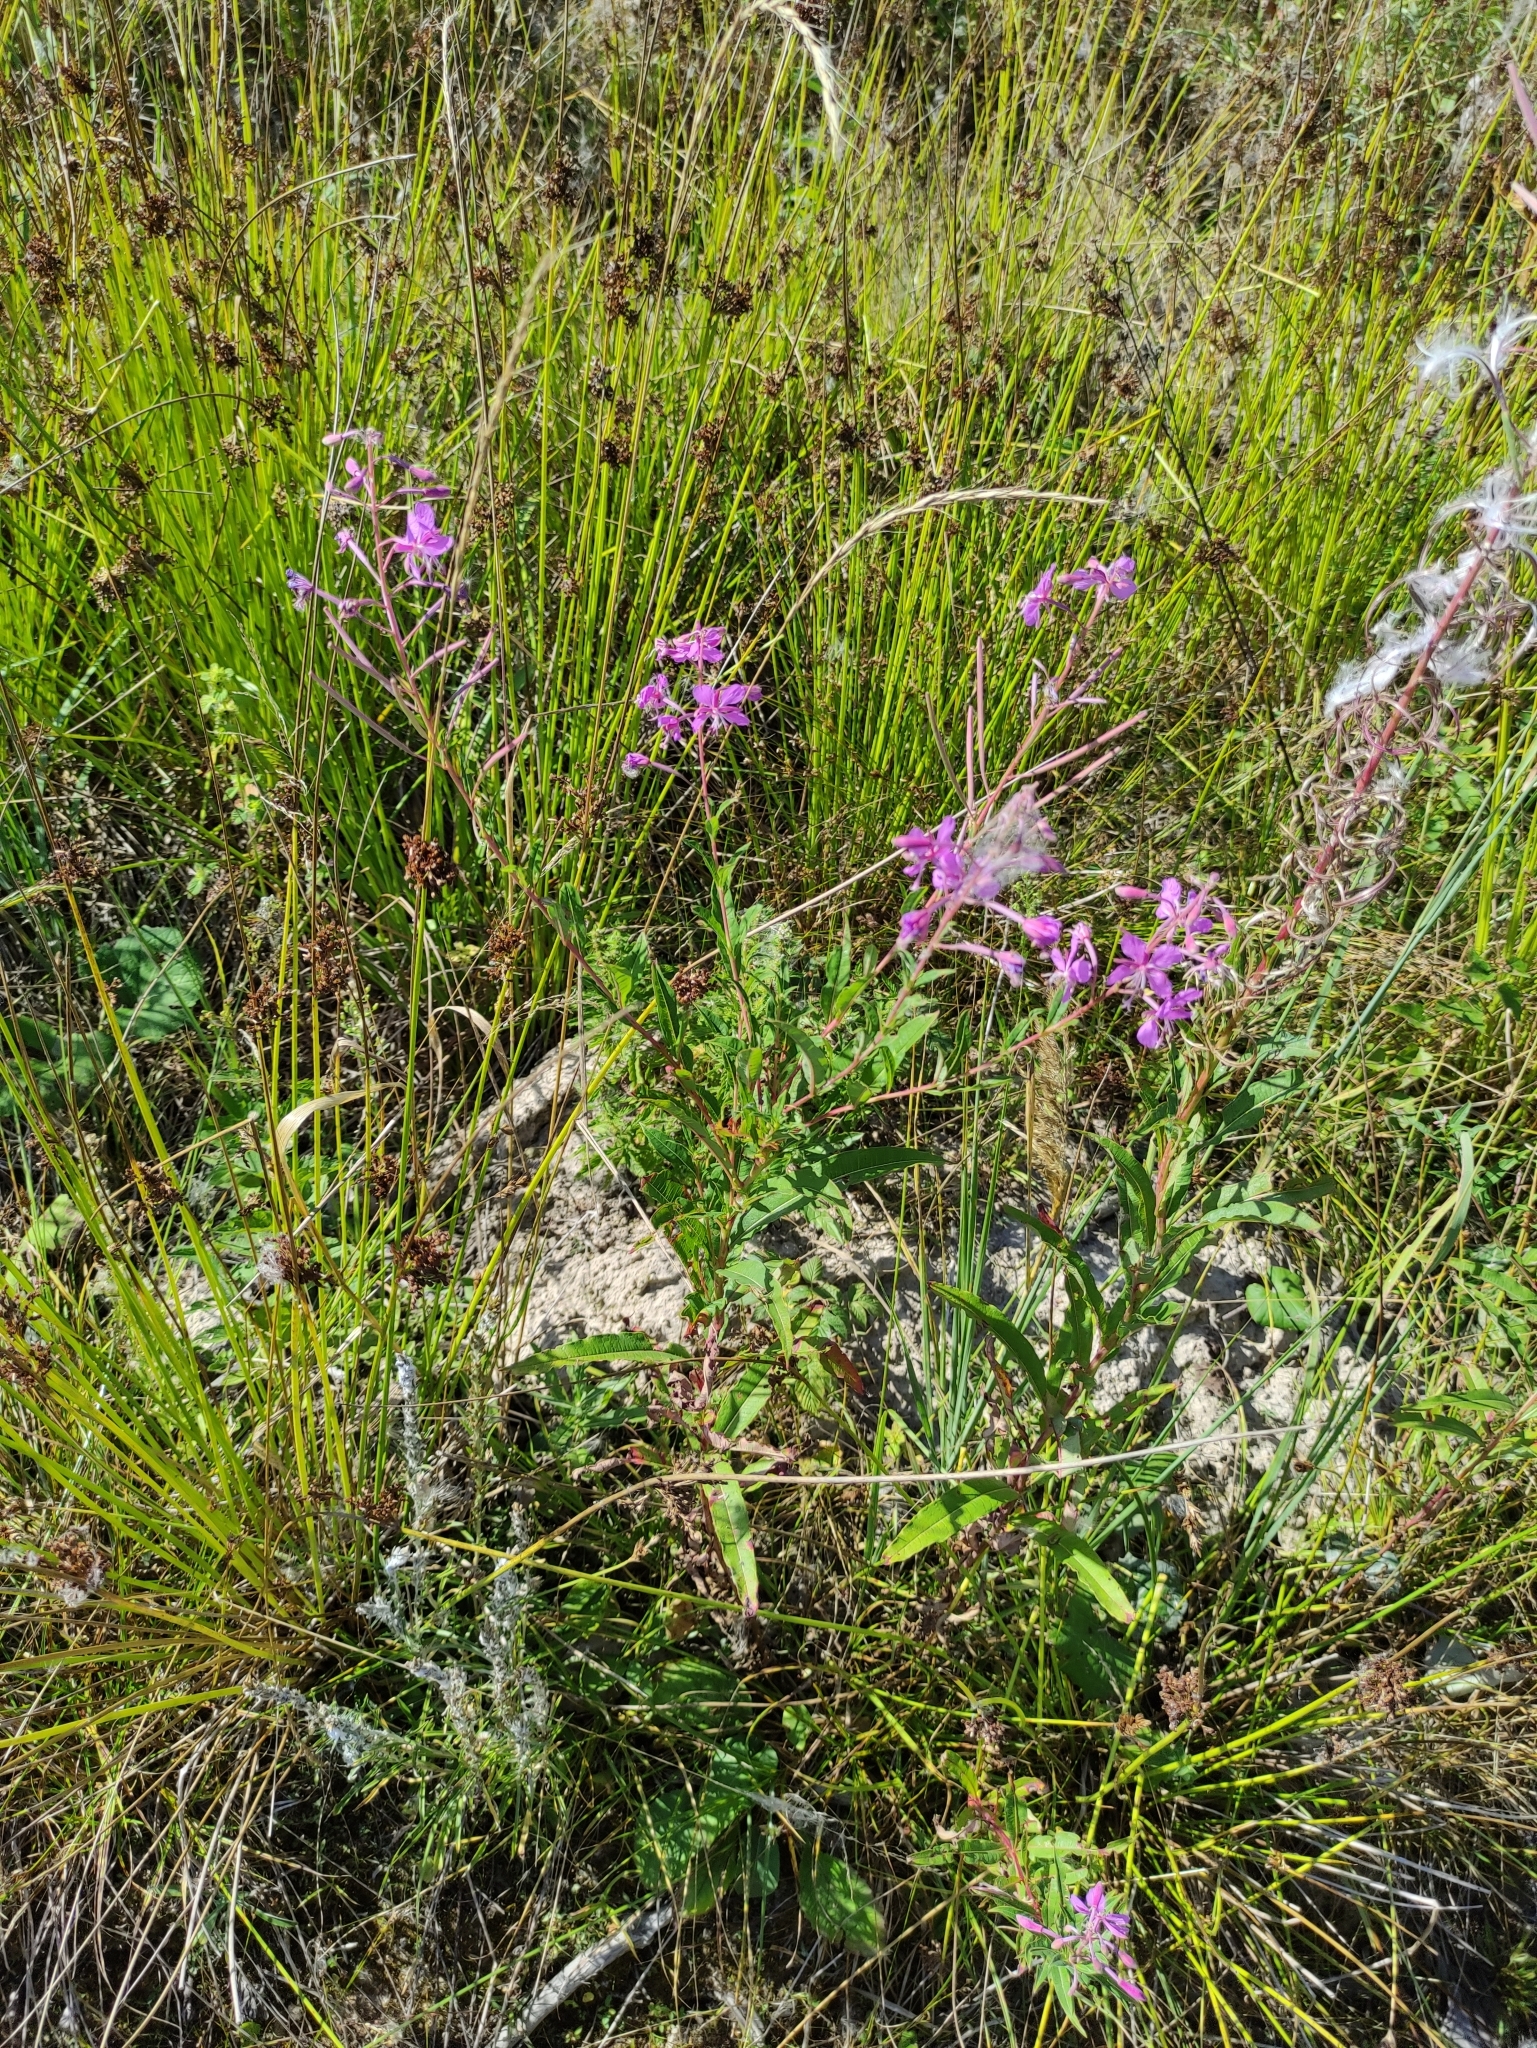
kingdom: Plantae
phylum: Tracheophyta
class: Magnoliopsida
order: Myrtales
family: Onagraceae
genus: Chamaenerion
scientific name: Chamaenerion angustifolium
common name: Fireweed
